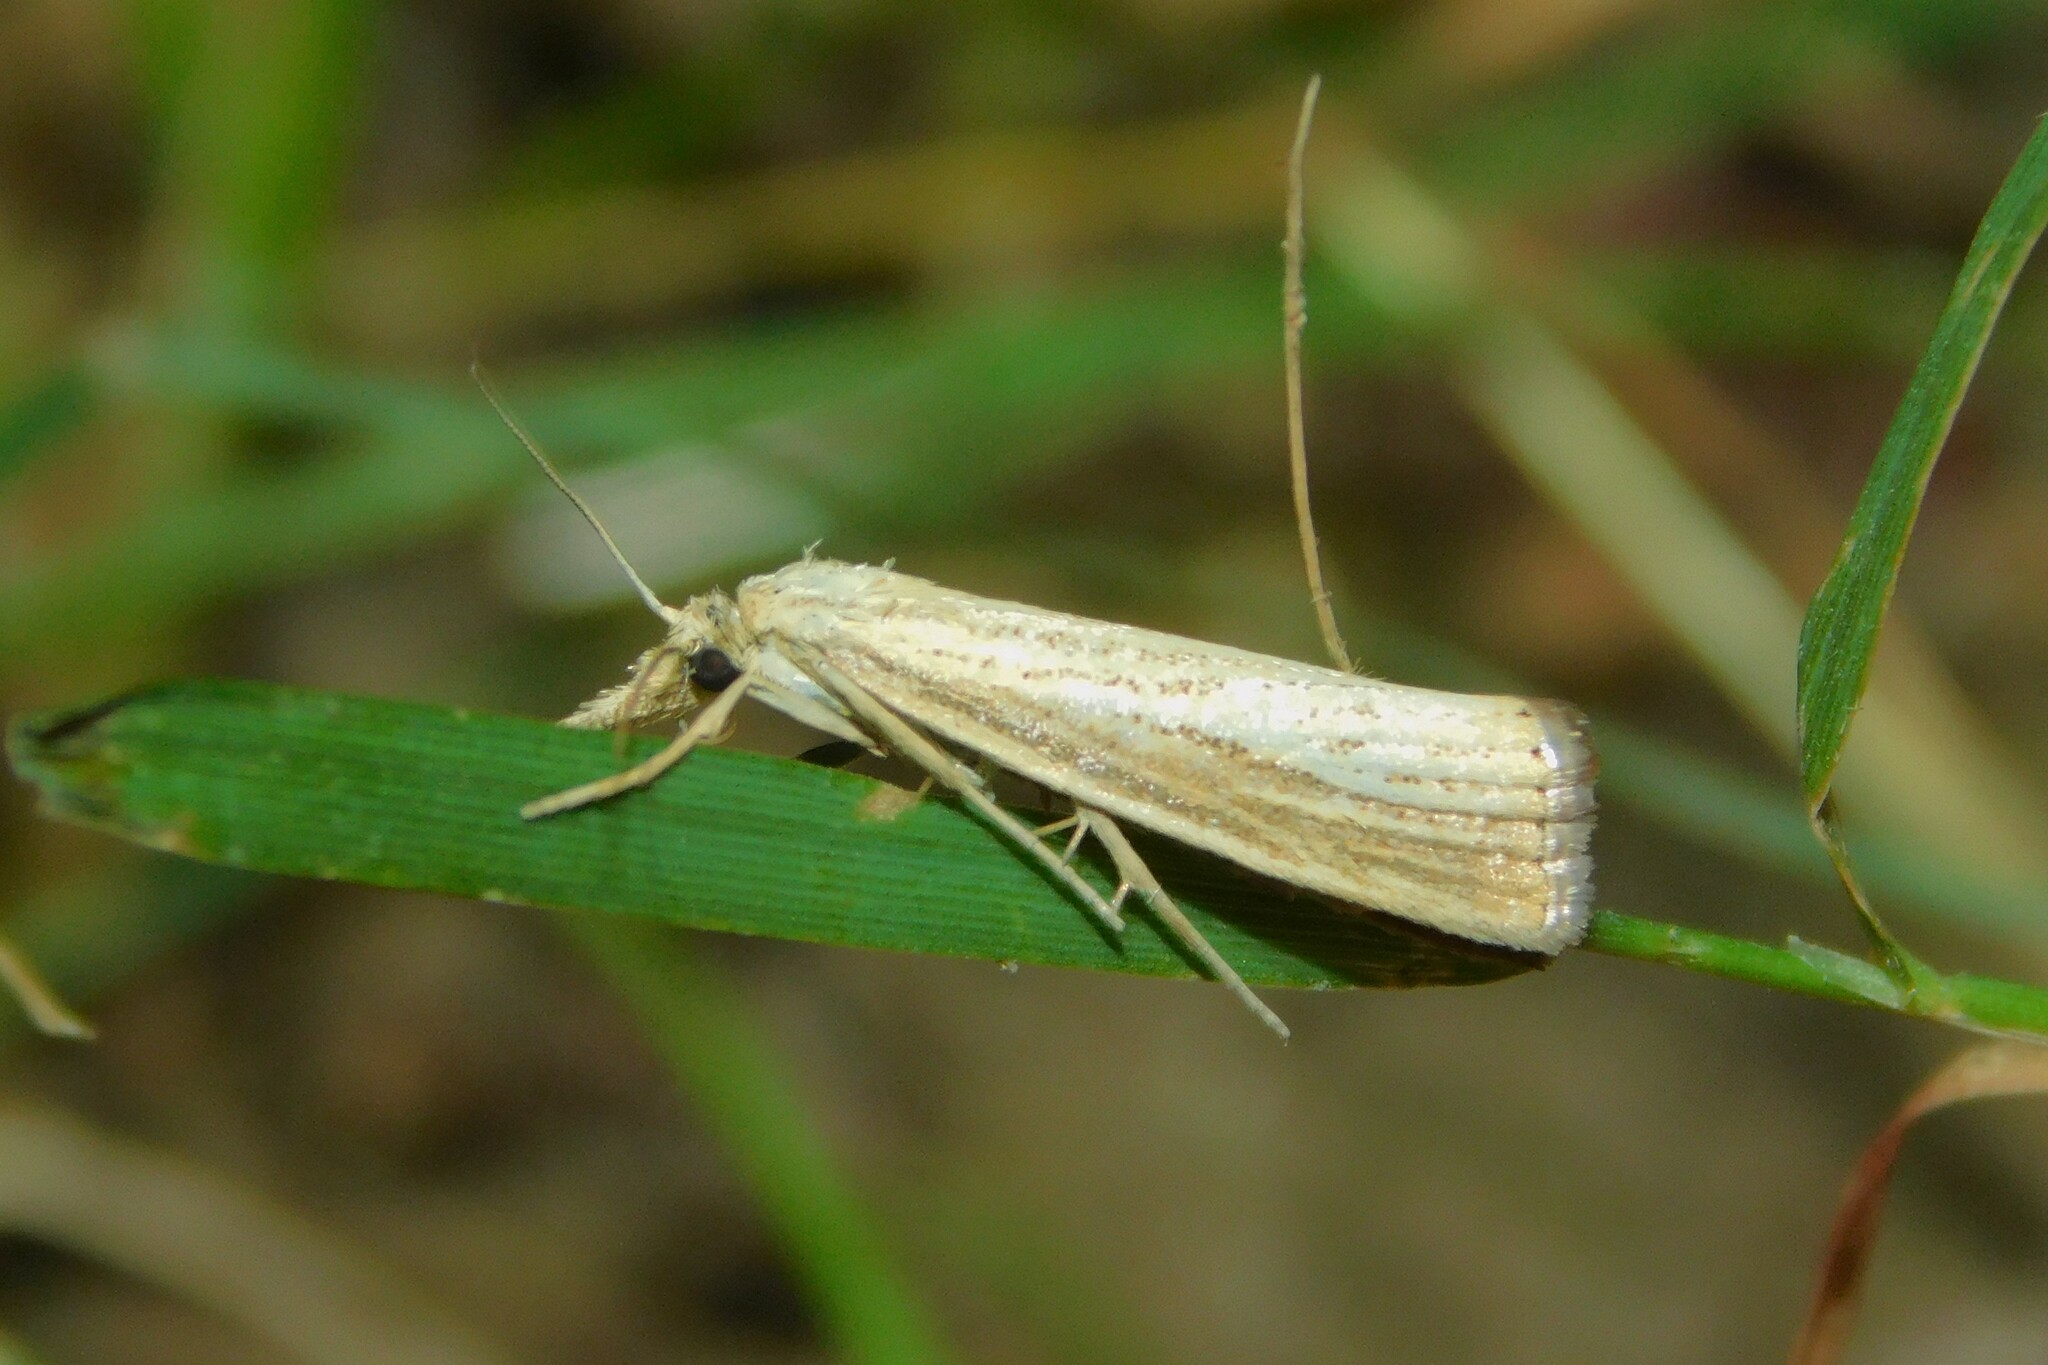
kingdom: Animalia
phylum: Arthropoda
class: Insecta
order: Lepidoptera
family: Crambidae
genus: Agriphila
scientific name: Agriphila straminella
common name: Straw grass-veneer
